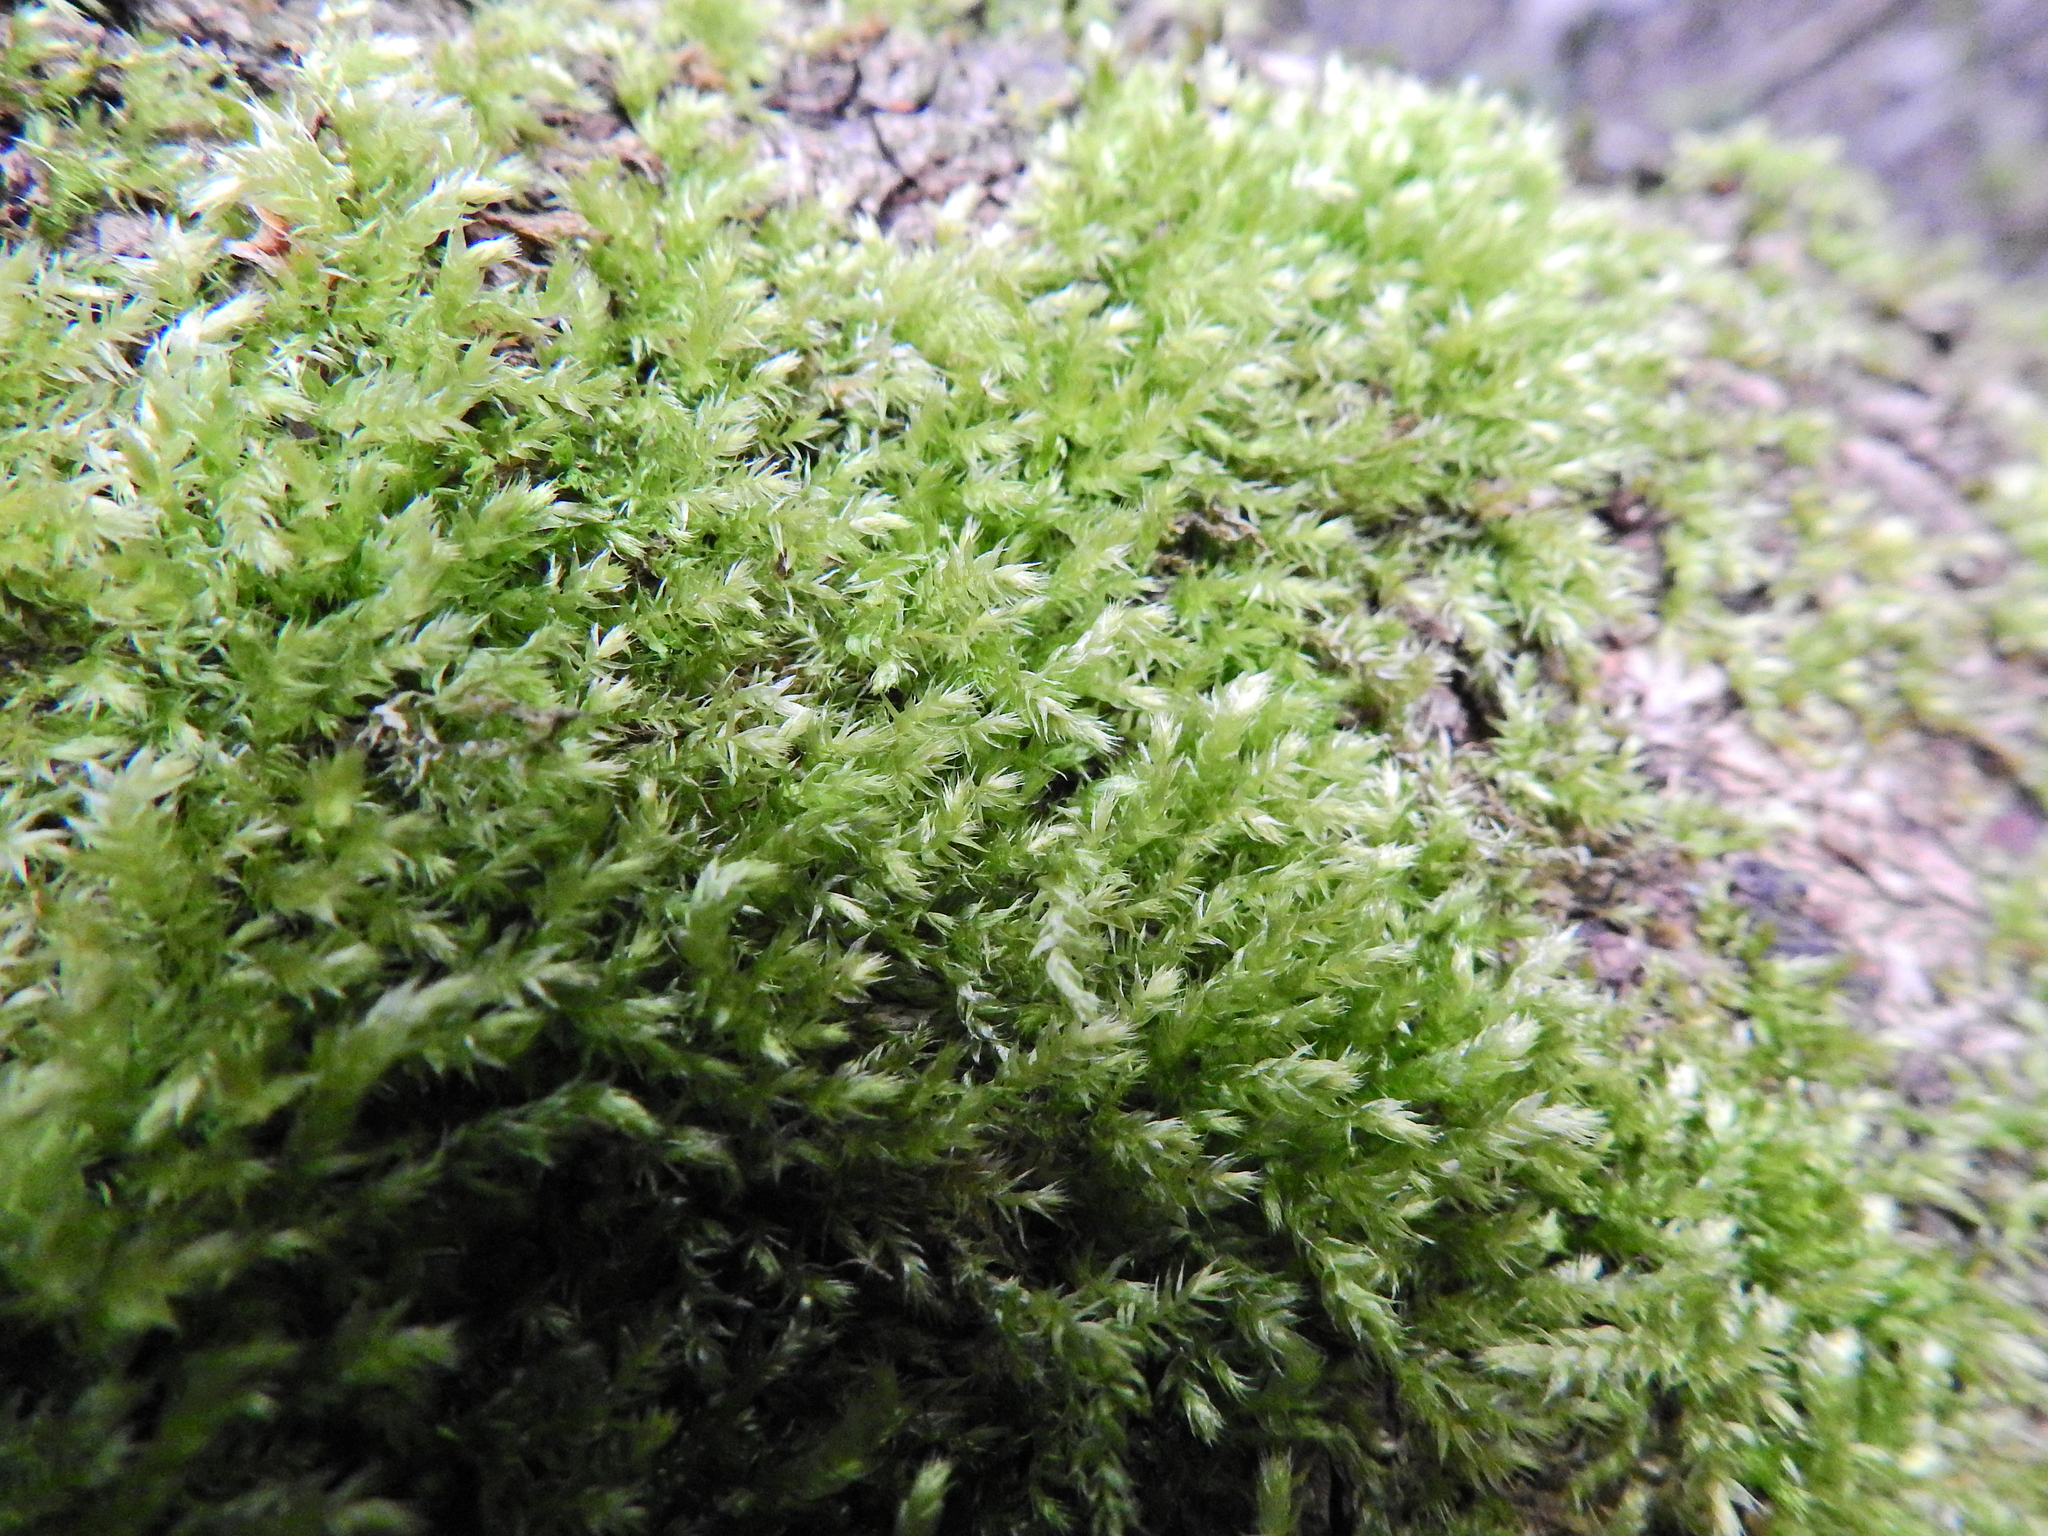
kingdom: Plantae
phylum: Bryophyta
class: Bryopsida
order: Hypnales
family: Brachytheciaceae
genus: Brachythecium
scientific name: Brachythecium rutabulum
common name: Rough-stalked feather-moss
